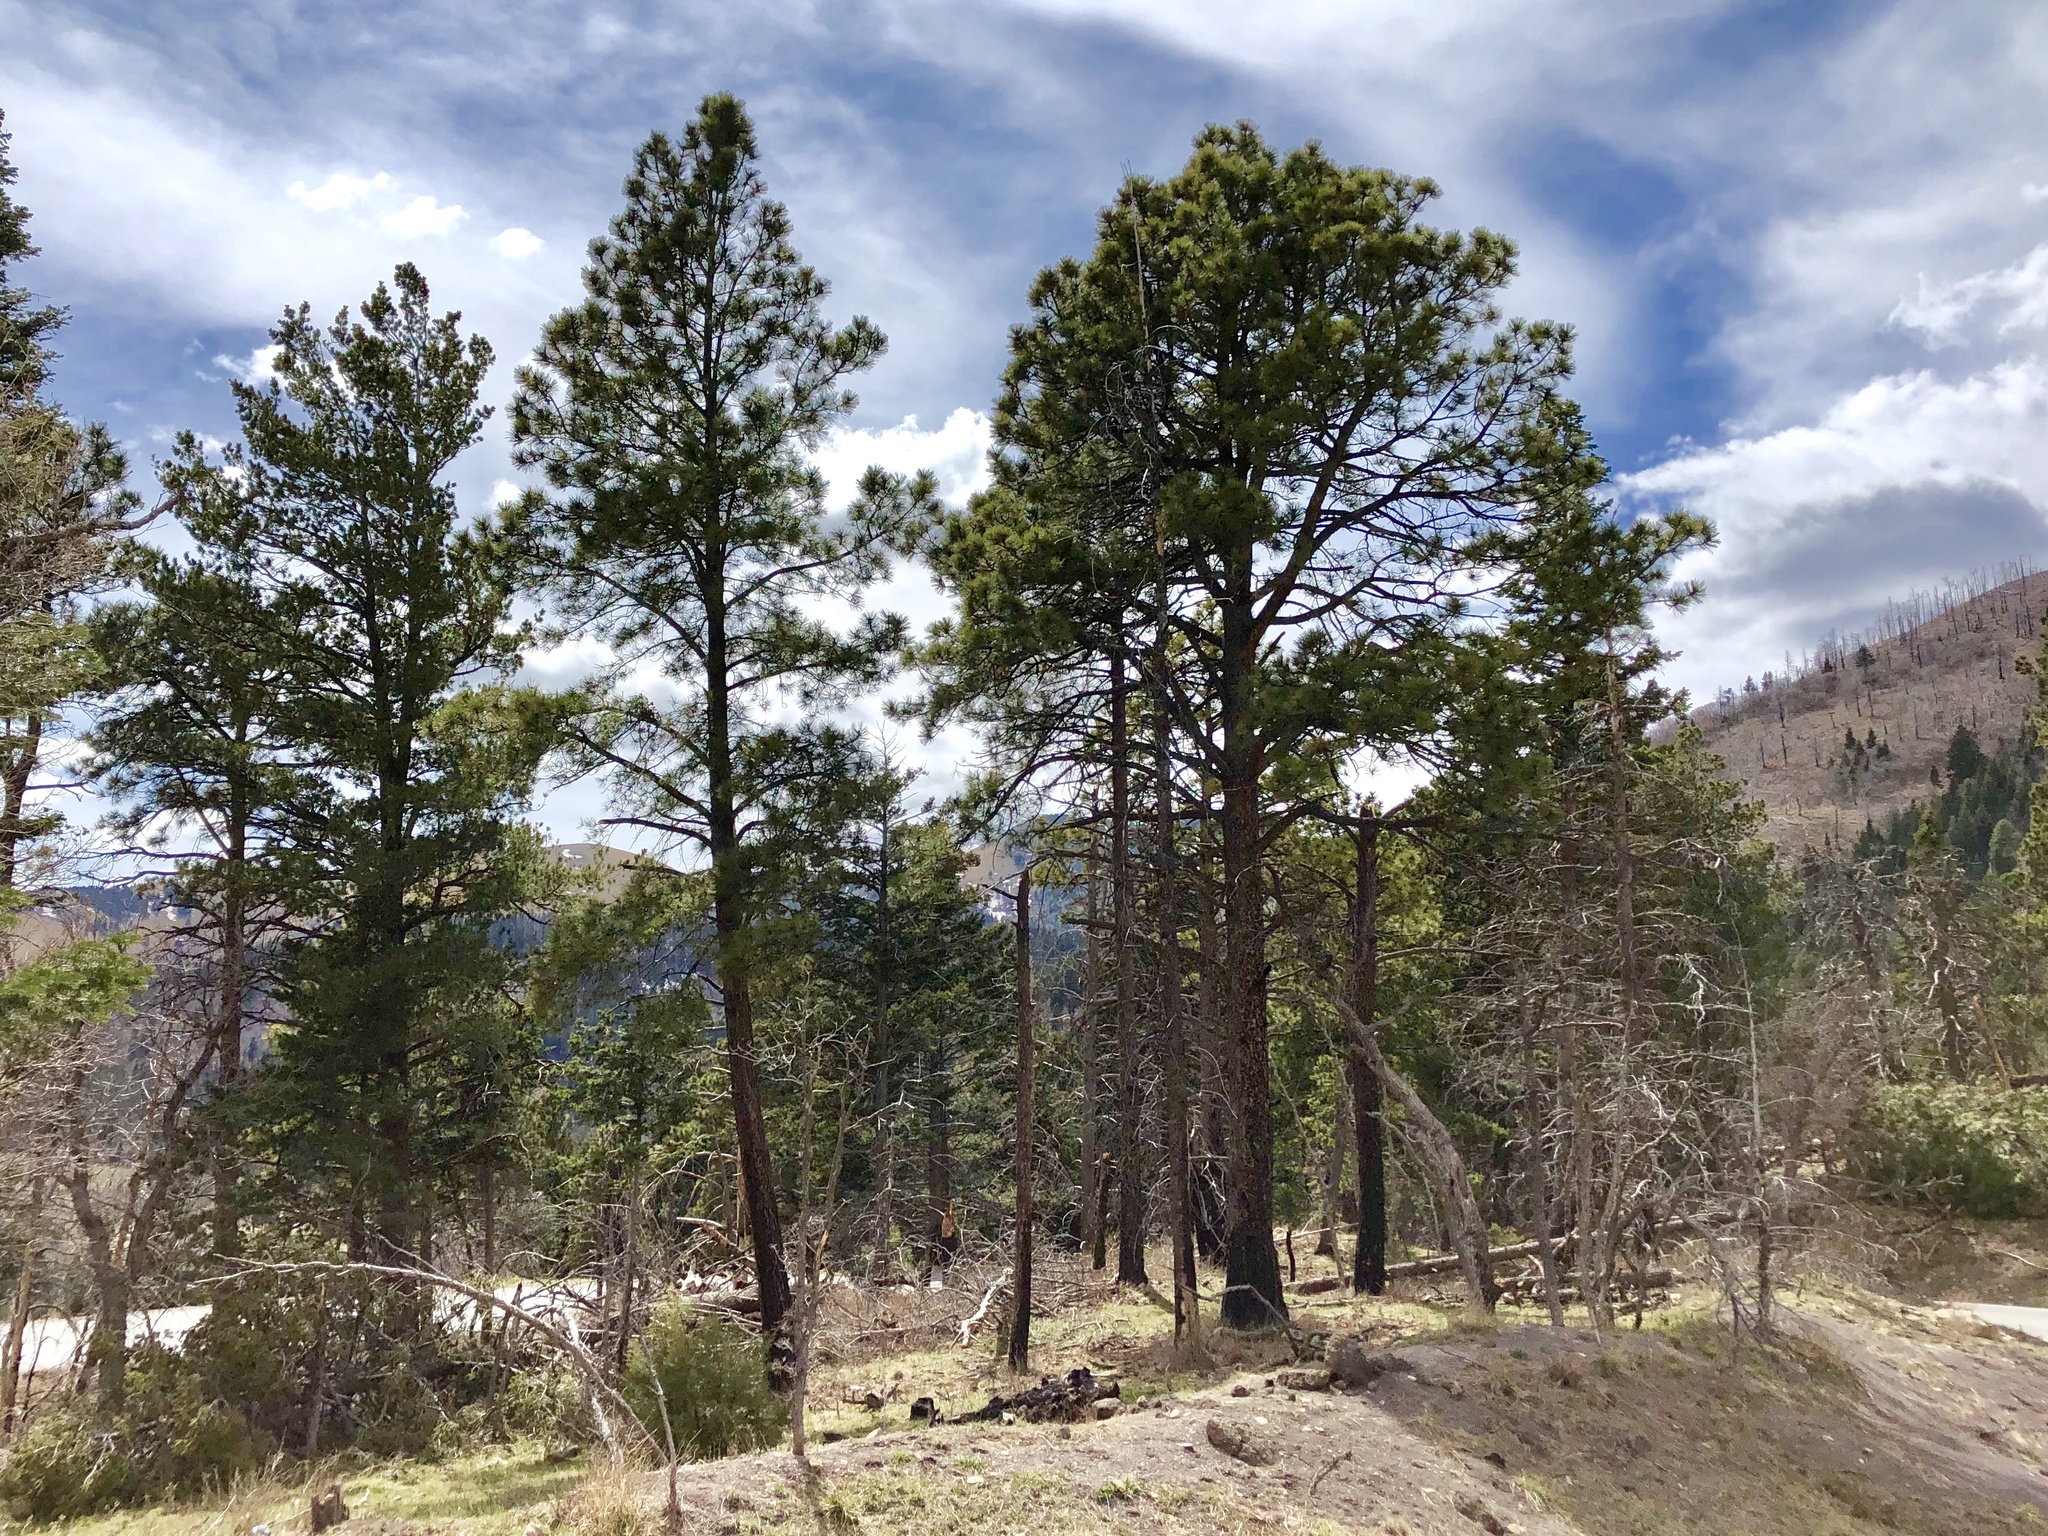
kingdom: Plantae
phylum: Tracheophyta
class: Pinopsida
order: Pinales
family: Pinaceae
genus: Pinus
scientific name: Pinus ponderosa
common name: Western yellow-pine
